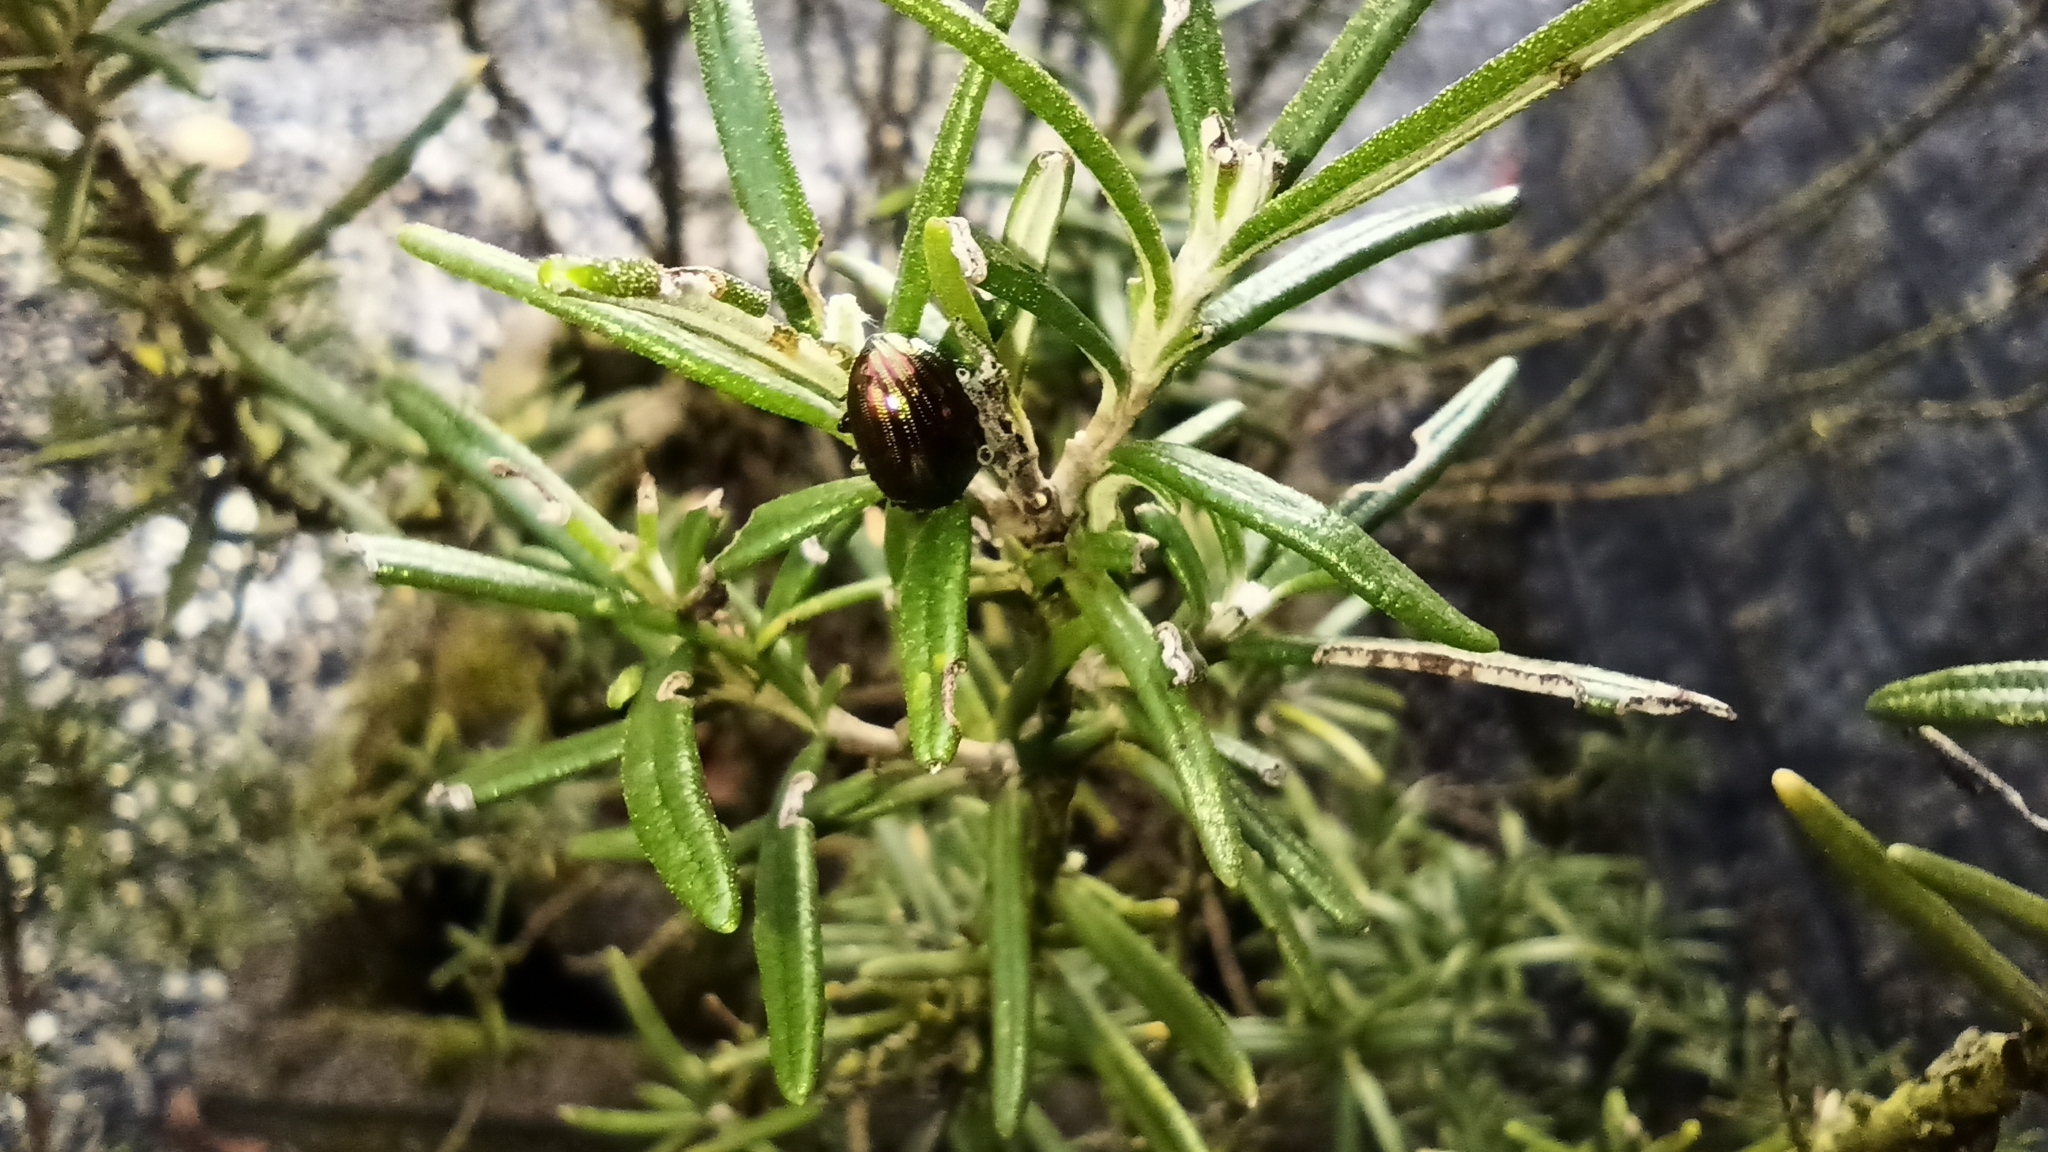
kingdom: Animalia
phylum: Arthropoda
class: Insecta
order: Coleoptera
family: Chrysomelidae
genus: Chrysolina
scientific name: Chrysolina americana
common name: Rosemary beetle
